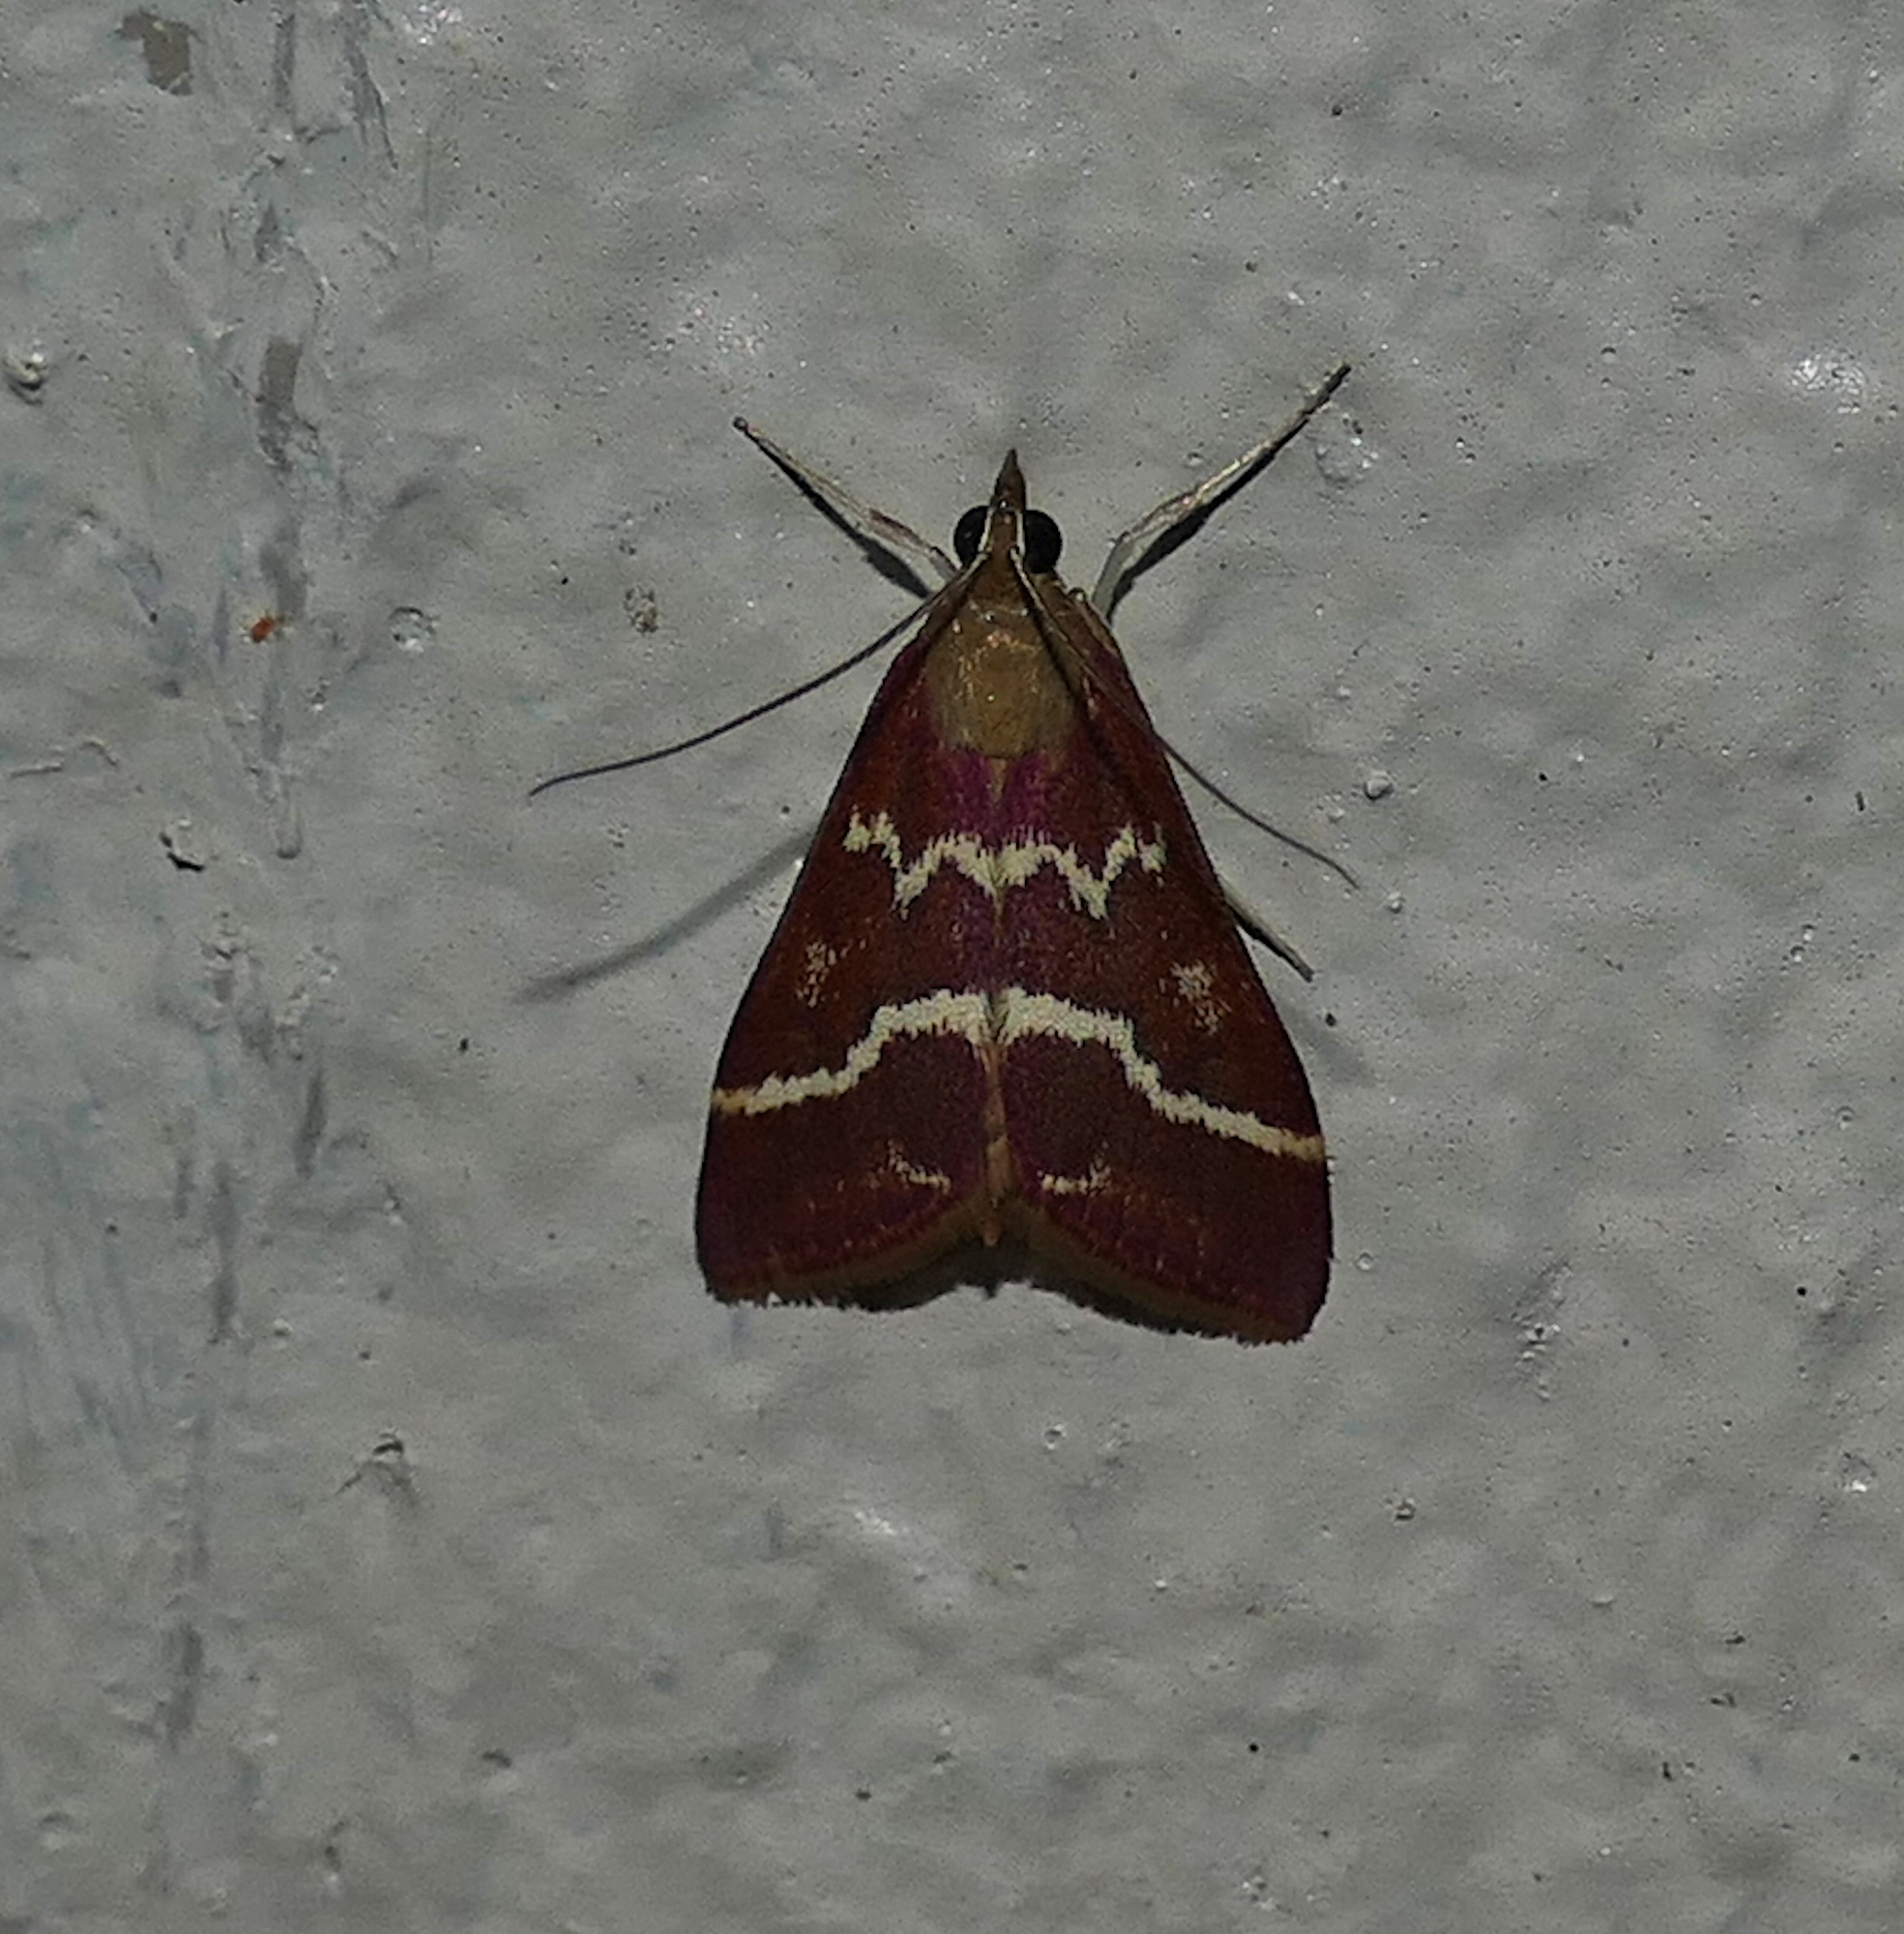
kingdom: Animalia
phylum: Arthropoda
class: Insecta
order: Lepidoptera
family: Crambidae
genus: Pyrausta
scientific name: Pyrausta volupialis
